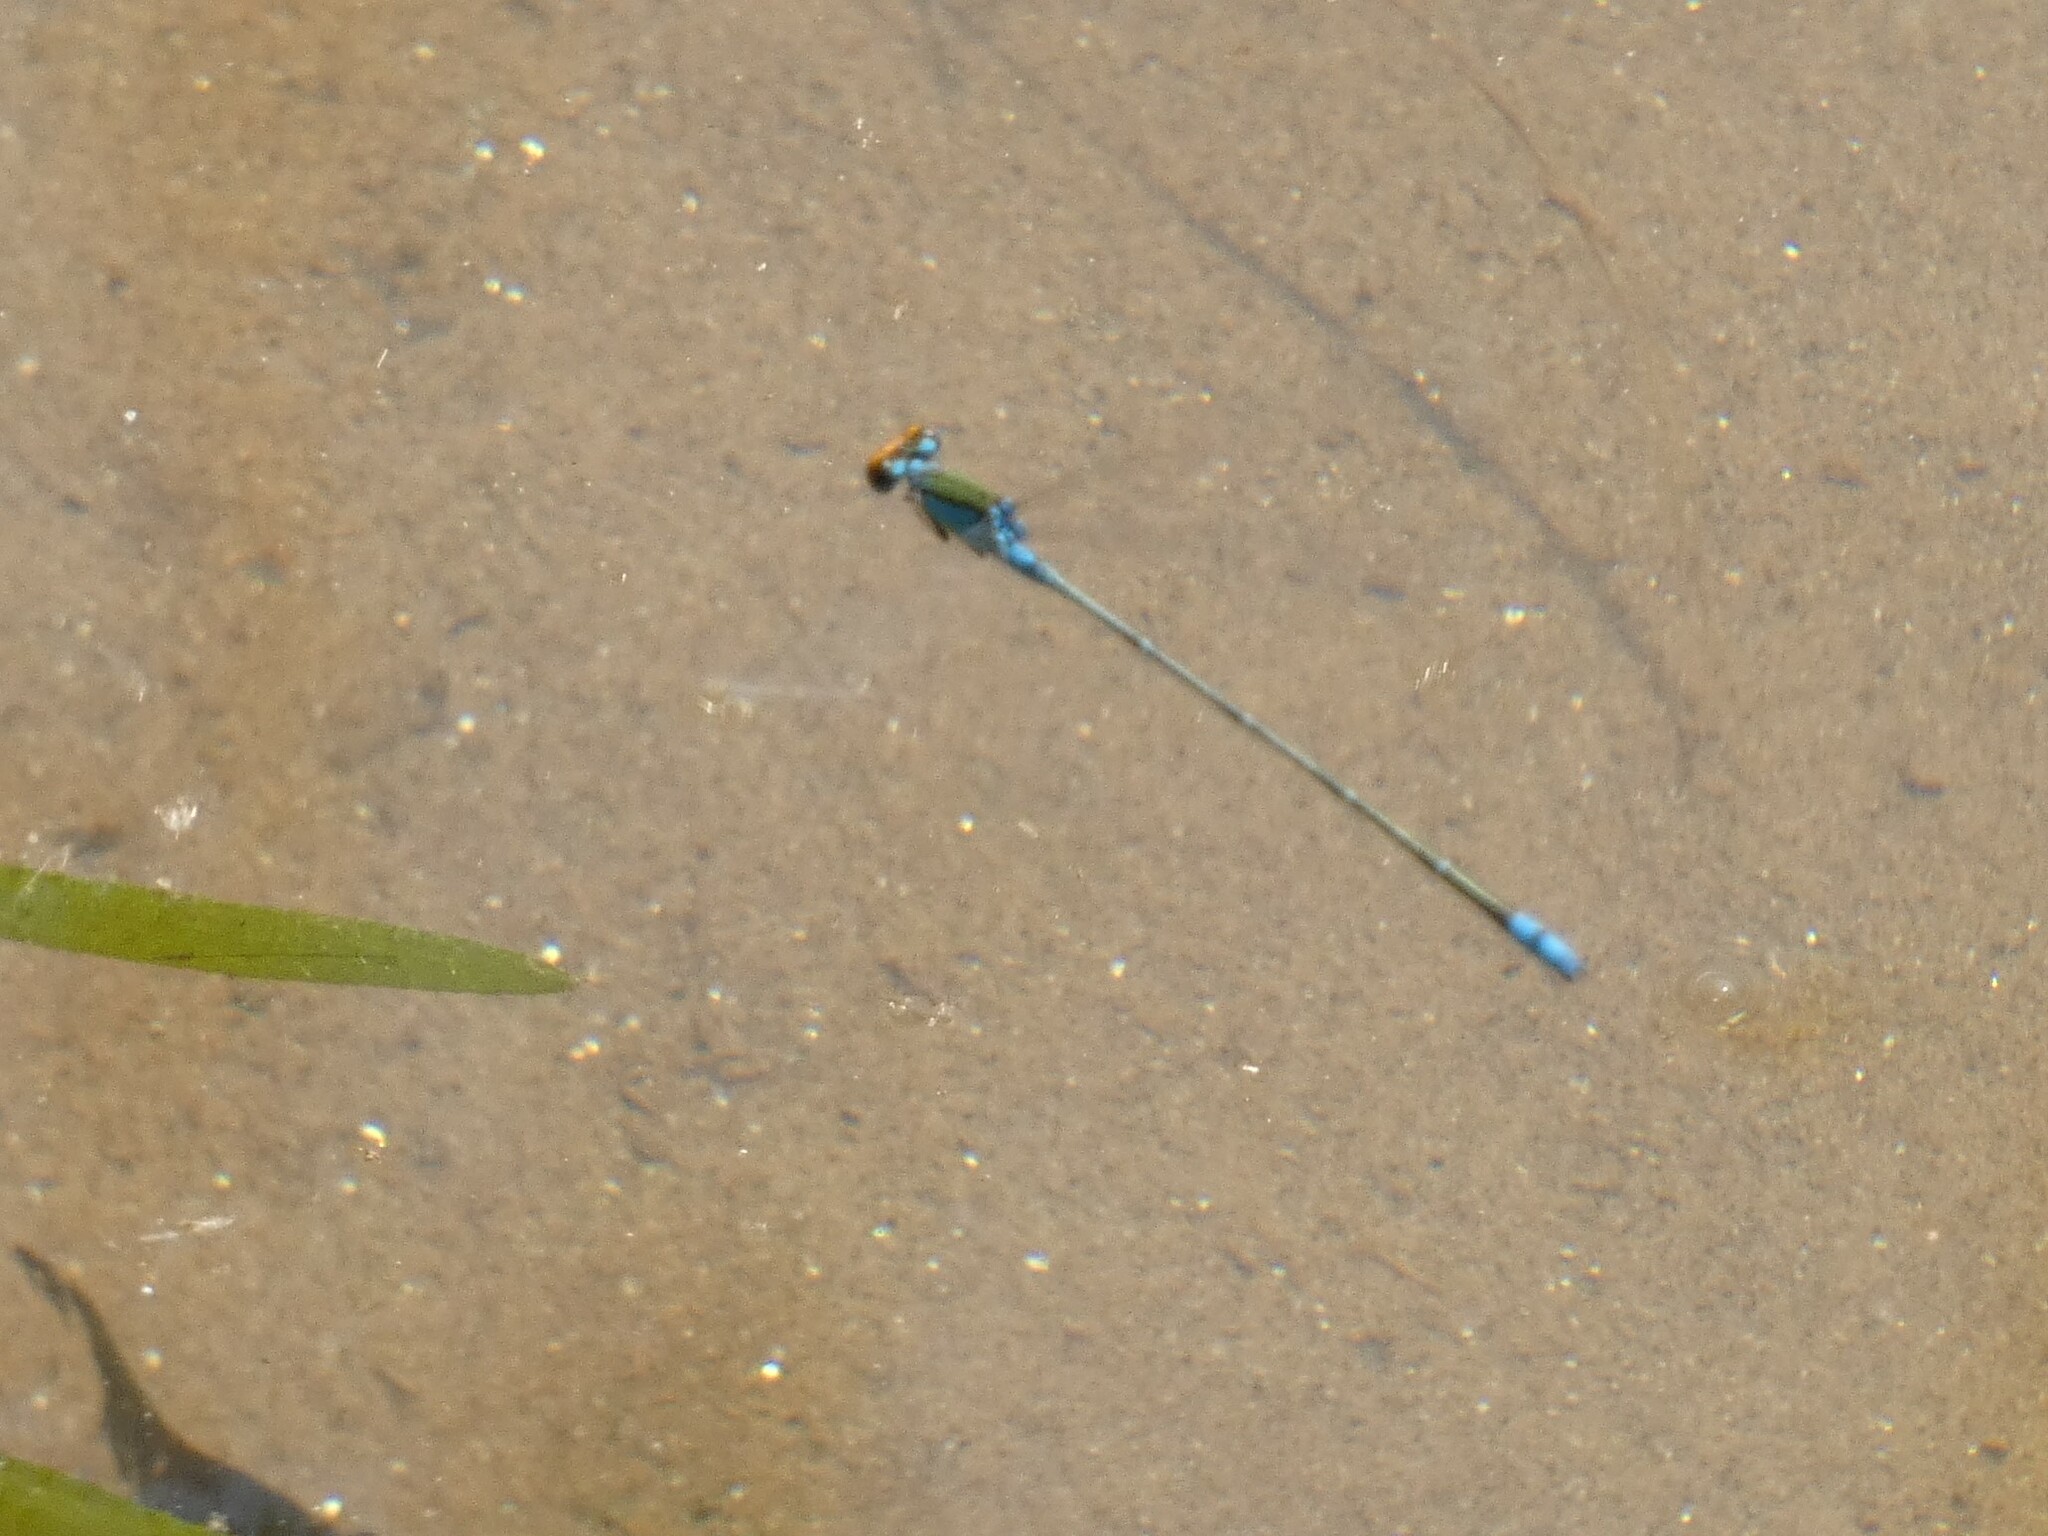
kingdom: Animalia
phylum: Arthropoda
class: Insecta
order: Odonata
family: Coenagrionidae
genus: Pseudagrion
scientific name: Pseudagrion rubriceps
